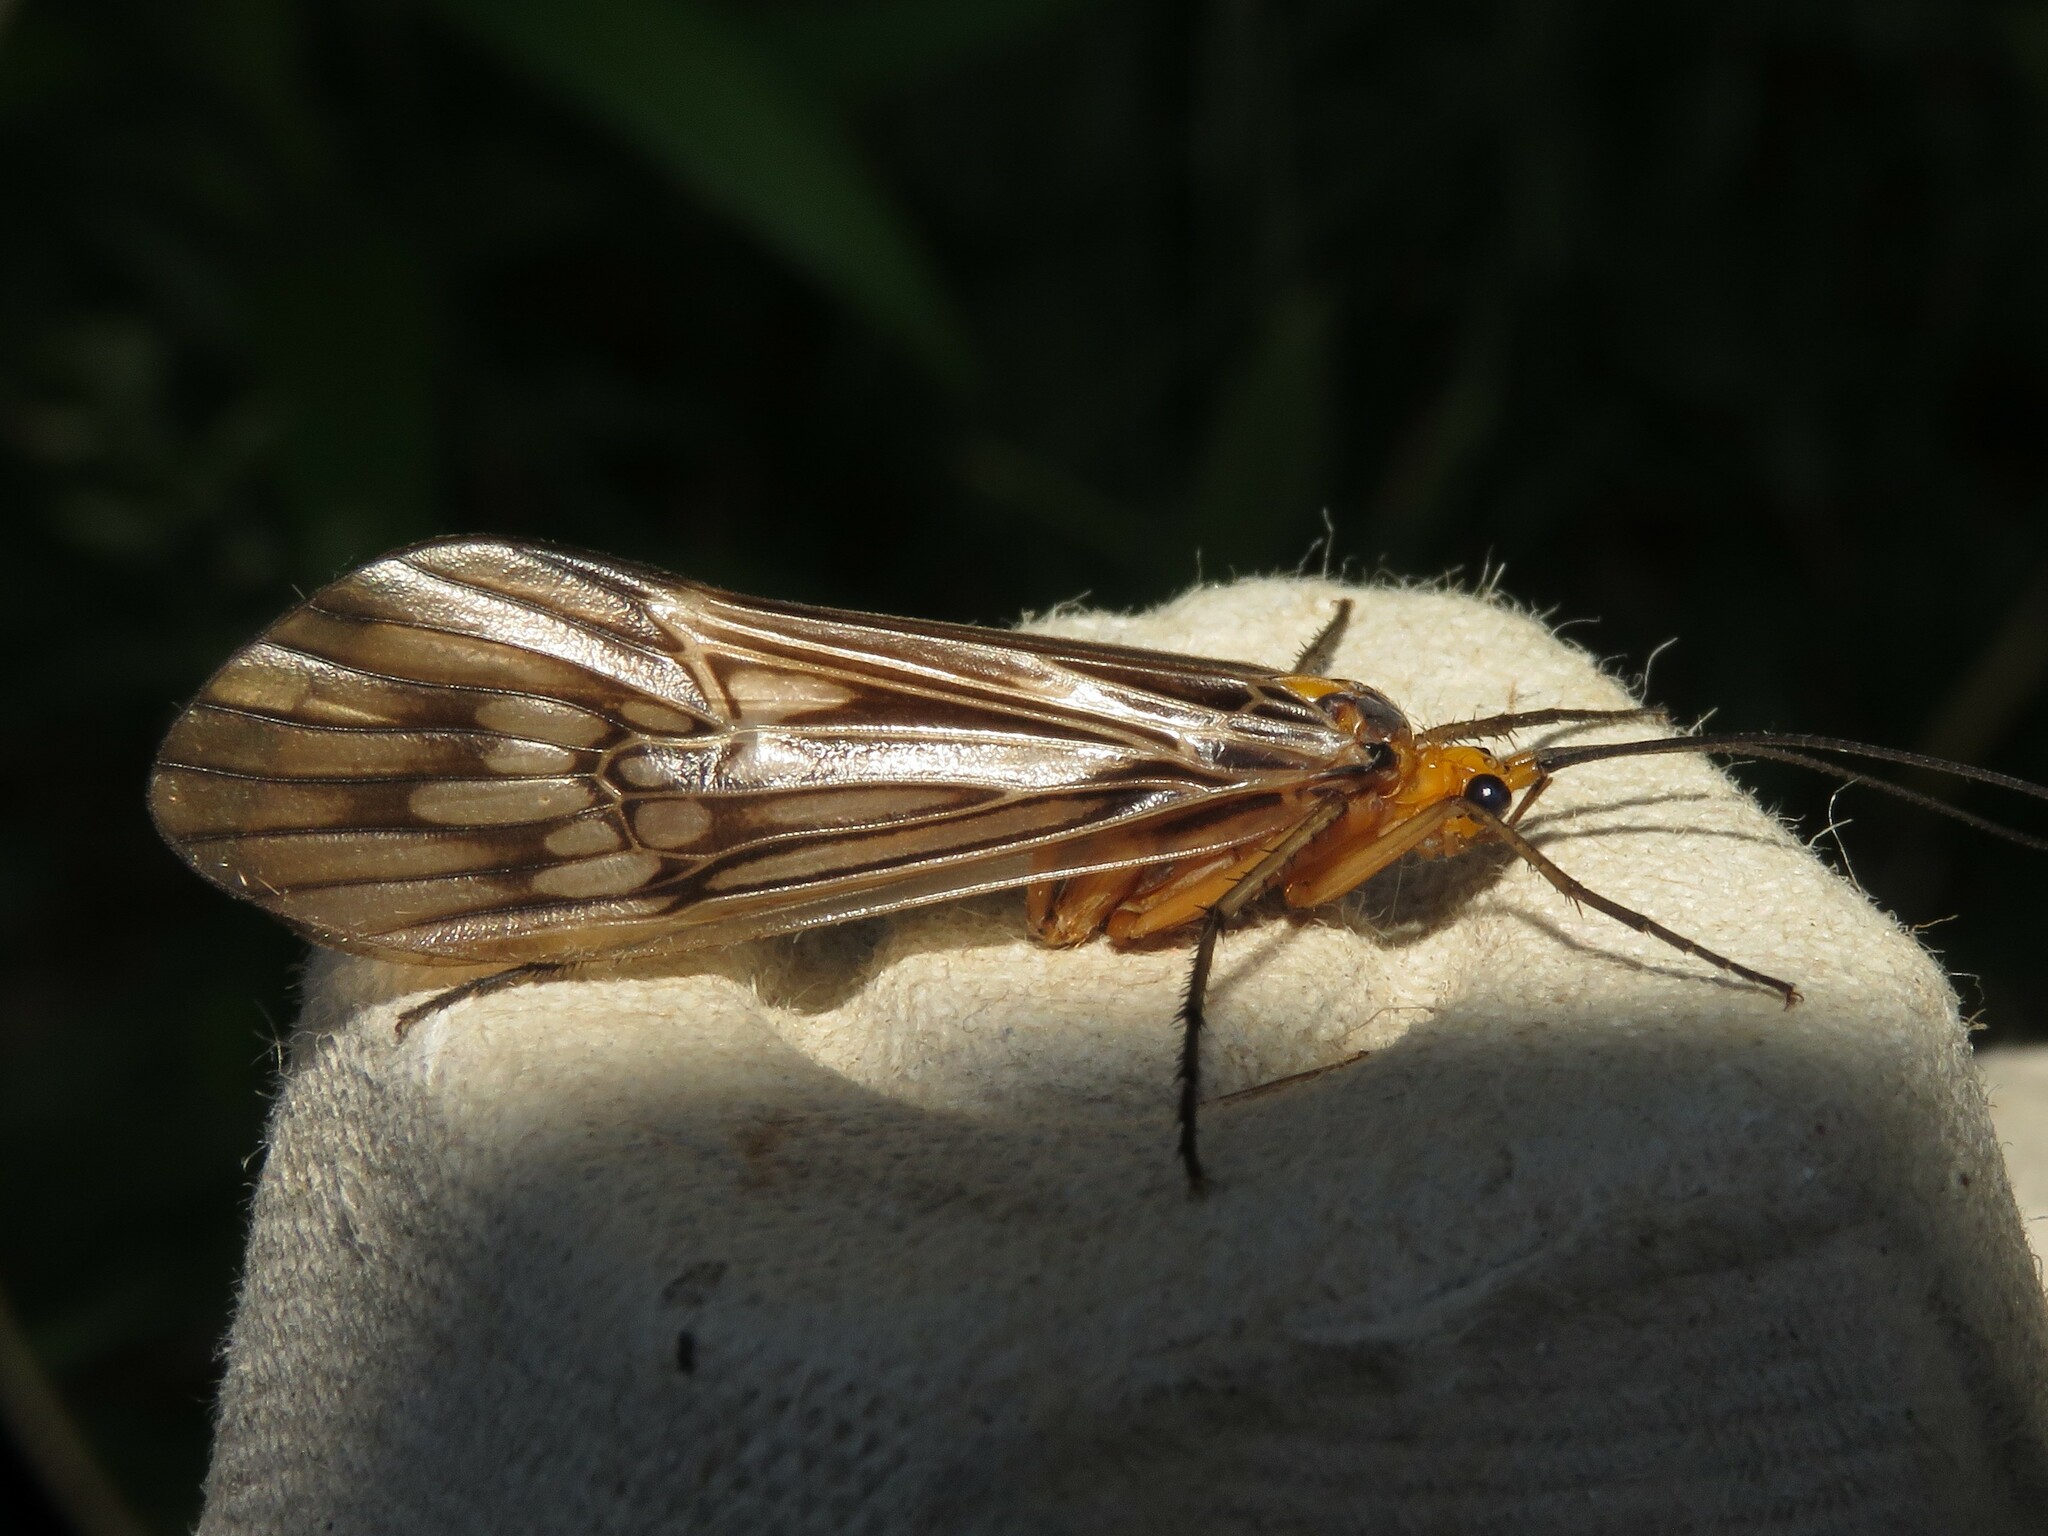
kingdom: Animalia
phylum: Arthropoda
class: Insecta
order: Trichoptera
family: Limnephilidae
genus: Hydatophylax
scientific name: Hydatophylax argus
